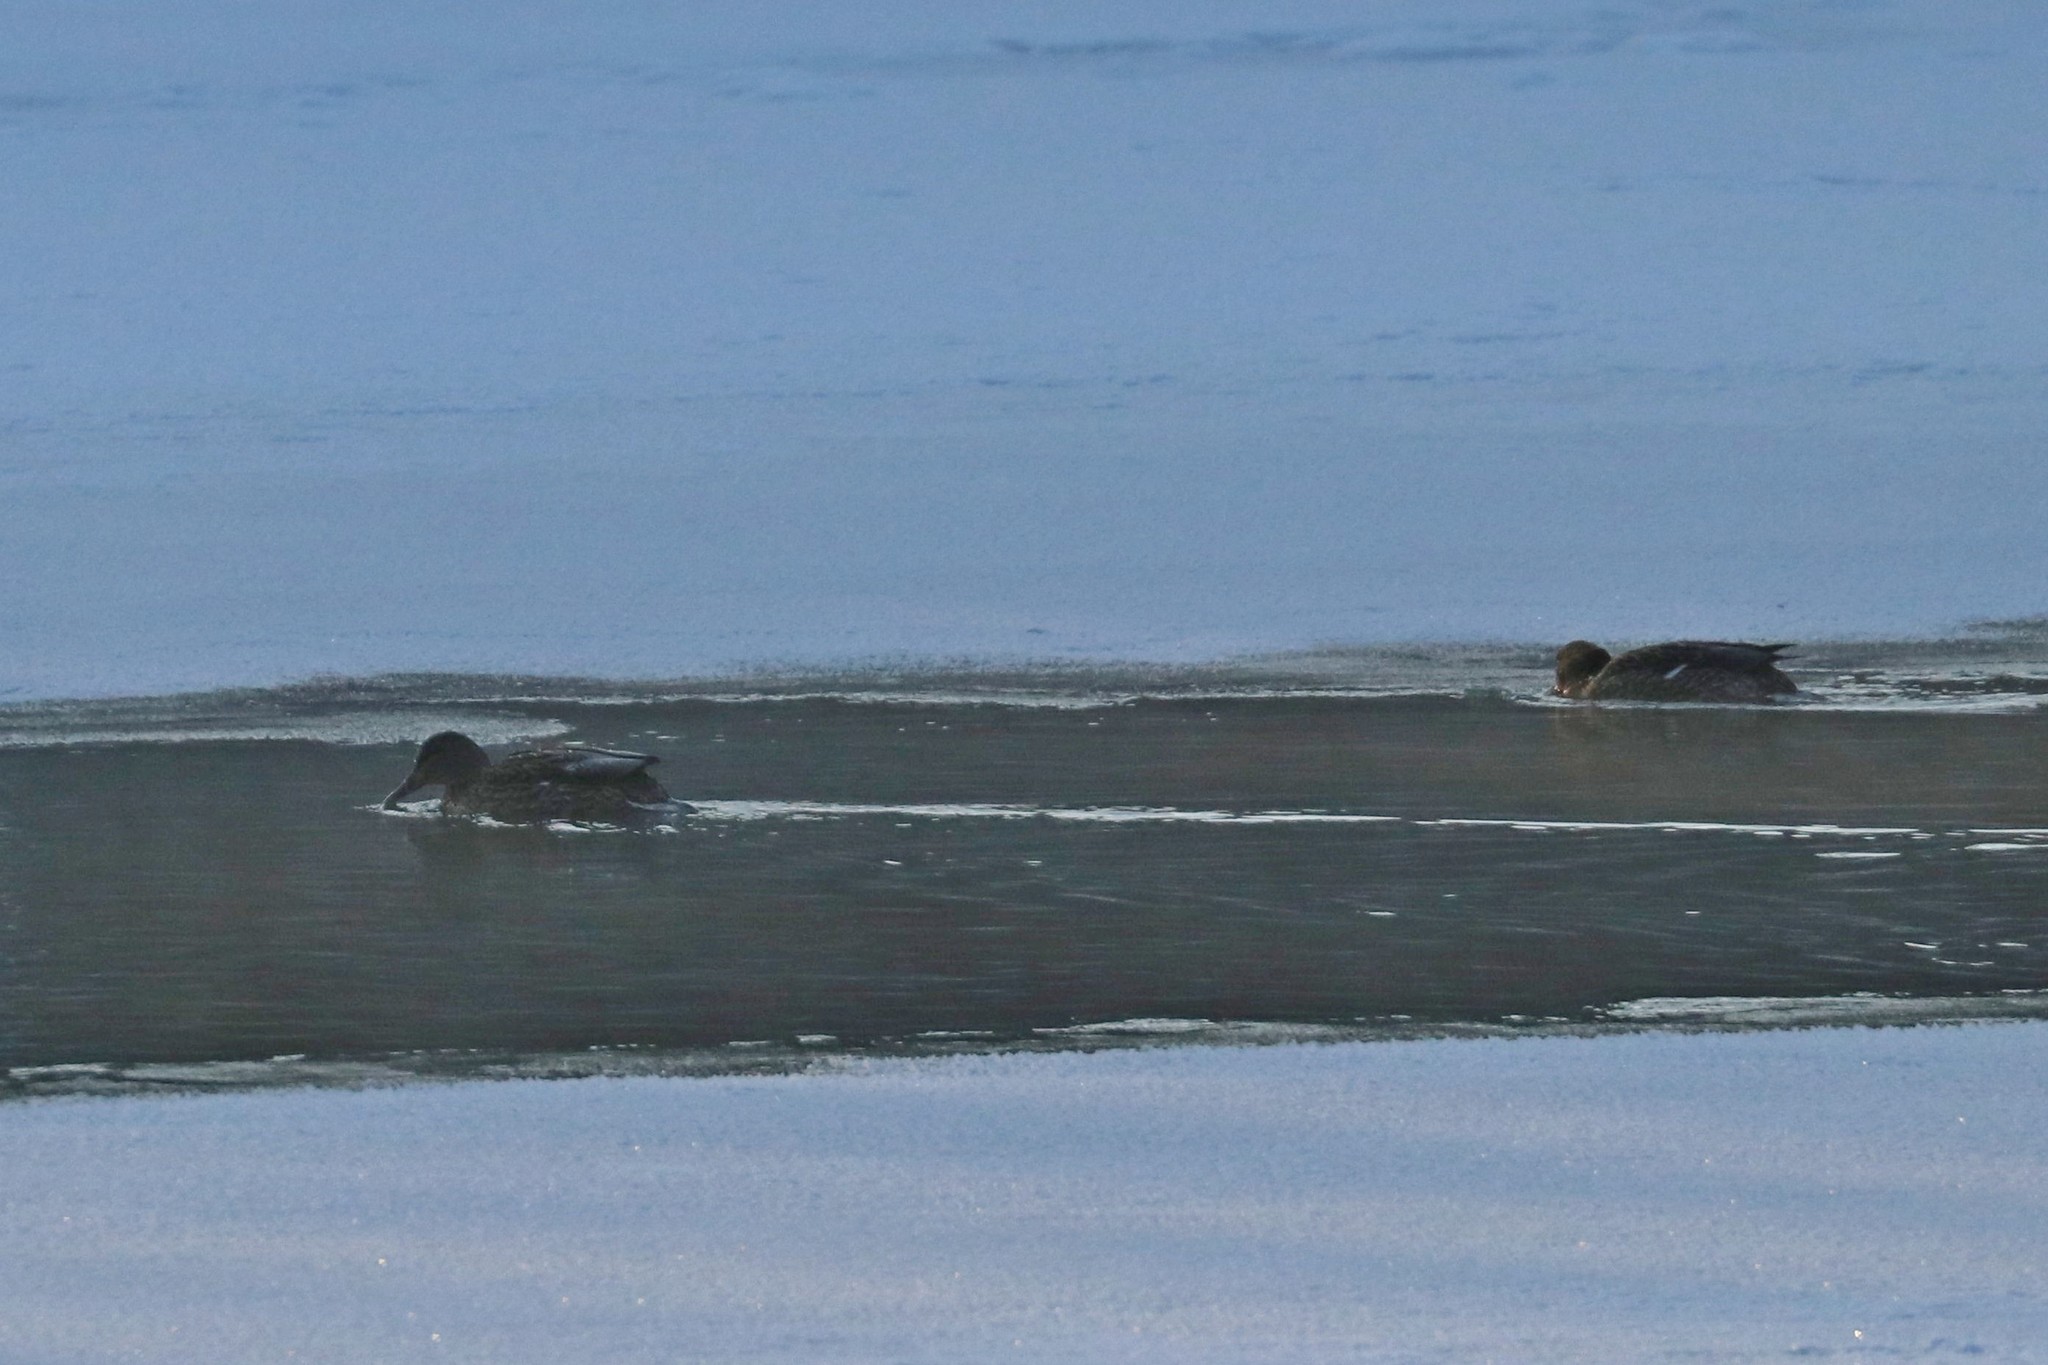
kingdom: Animalia
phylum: Chordata
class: Aves
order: Anseriformes
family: Anatidae
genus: Anas
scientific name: Anas platyrhynchos
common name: Mallard
